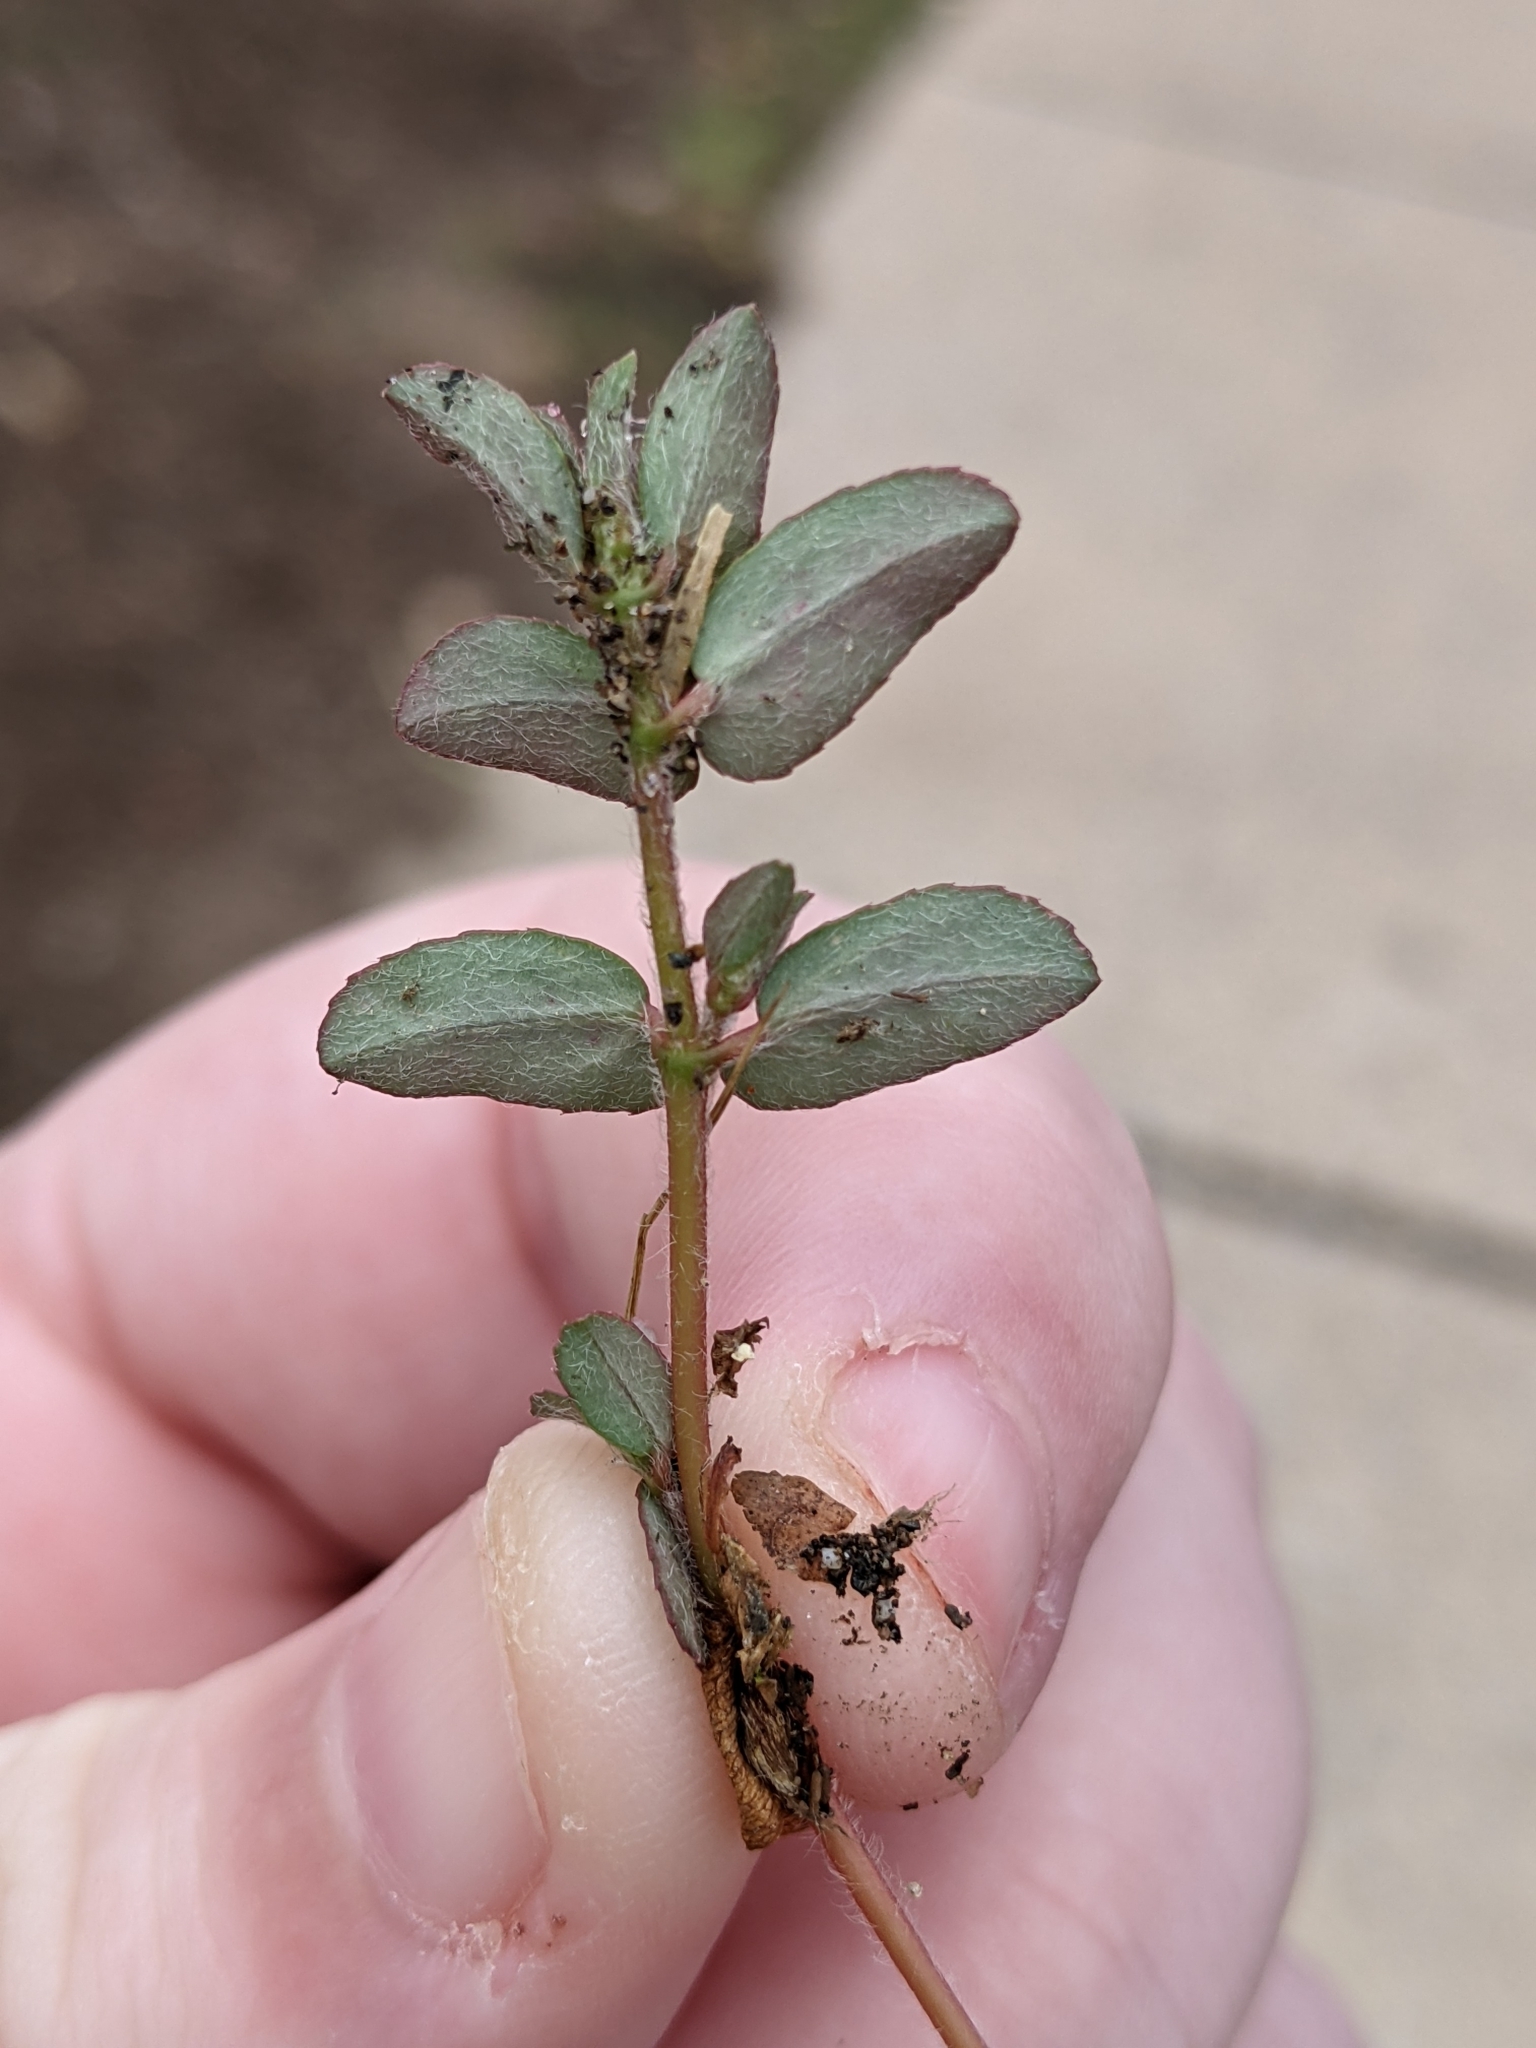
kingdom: Plantae
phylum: Tracheophyta
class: Magnoliopsida
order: Malpighiales
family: Euphorbiaceae
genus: Euphorbia
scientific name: Euphorbia maculata
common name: Spotted spurge
